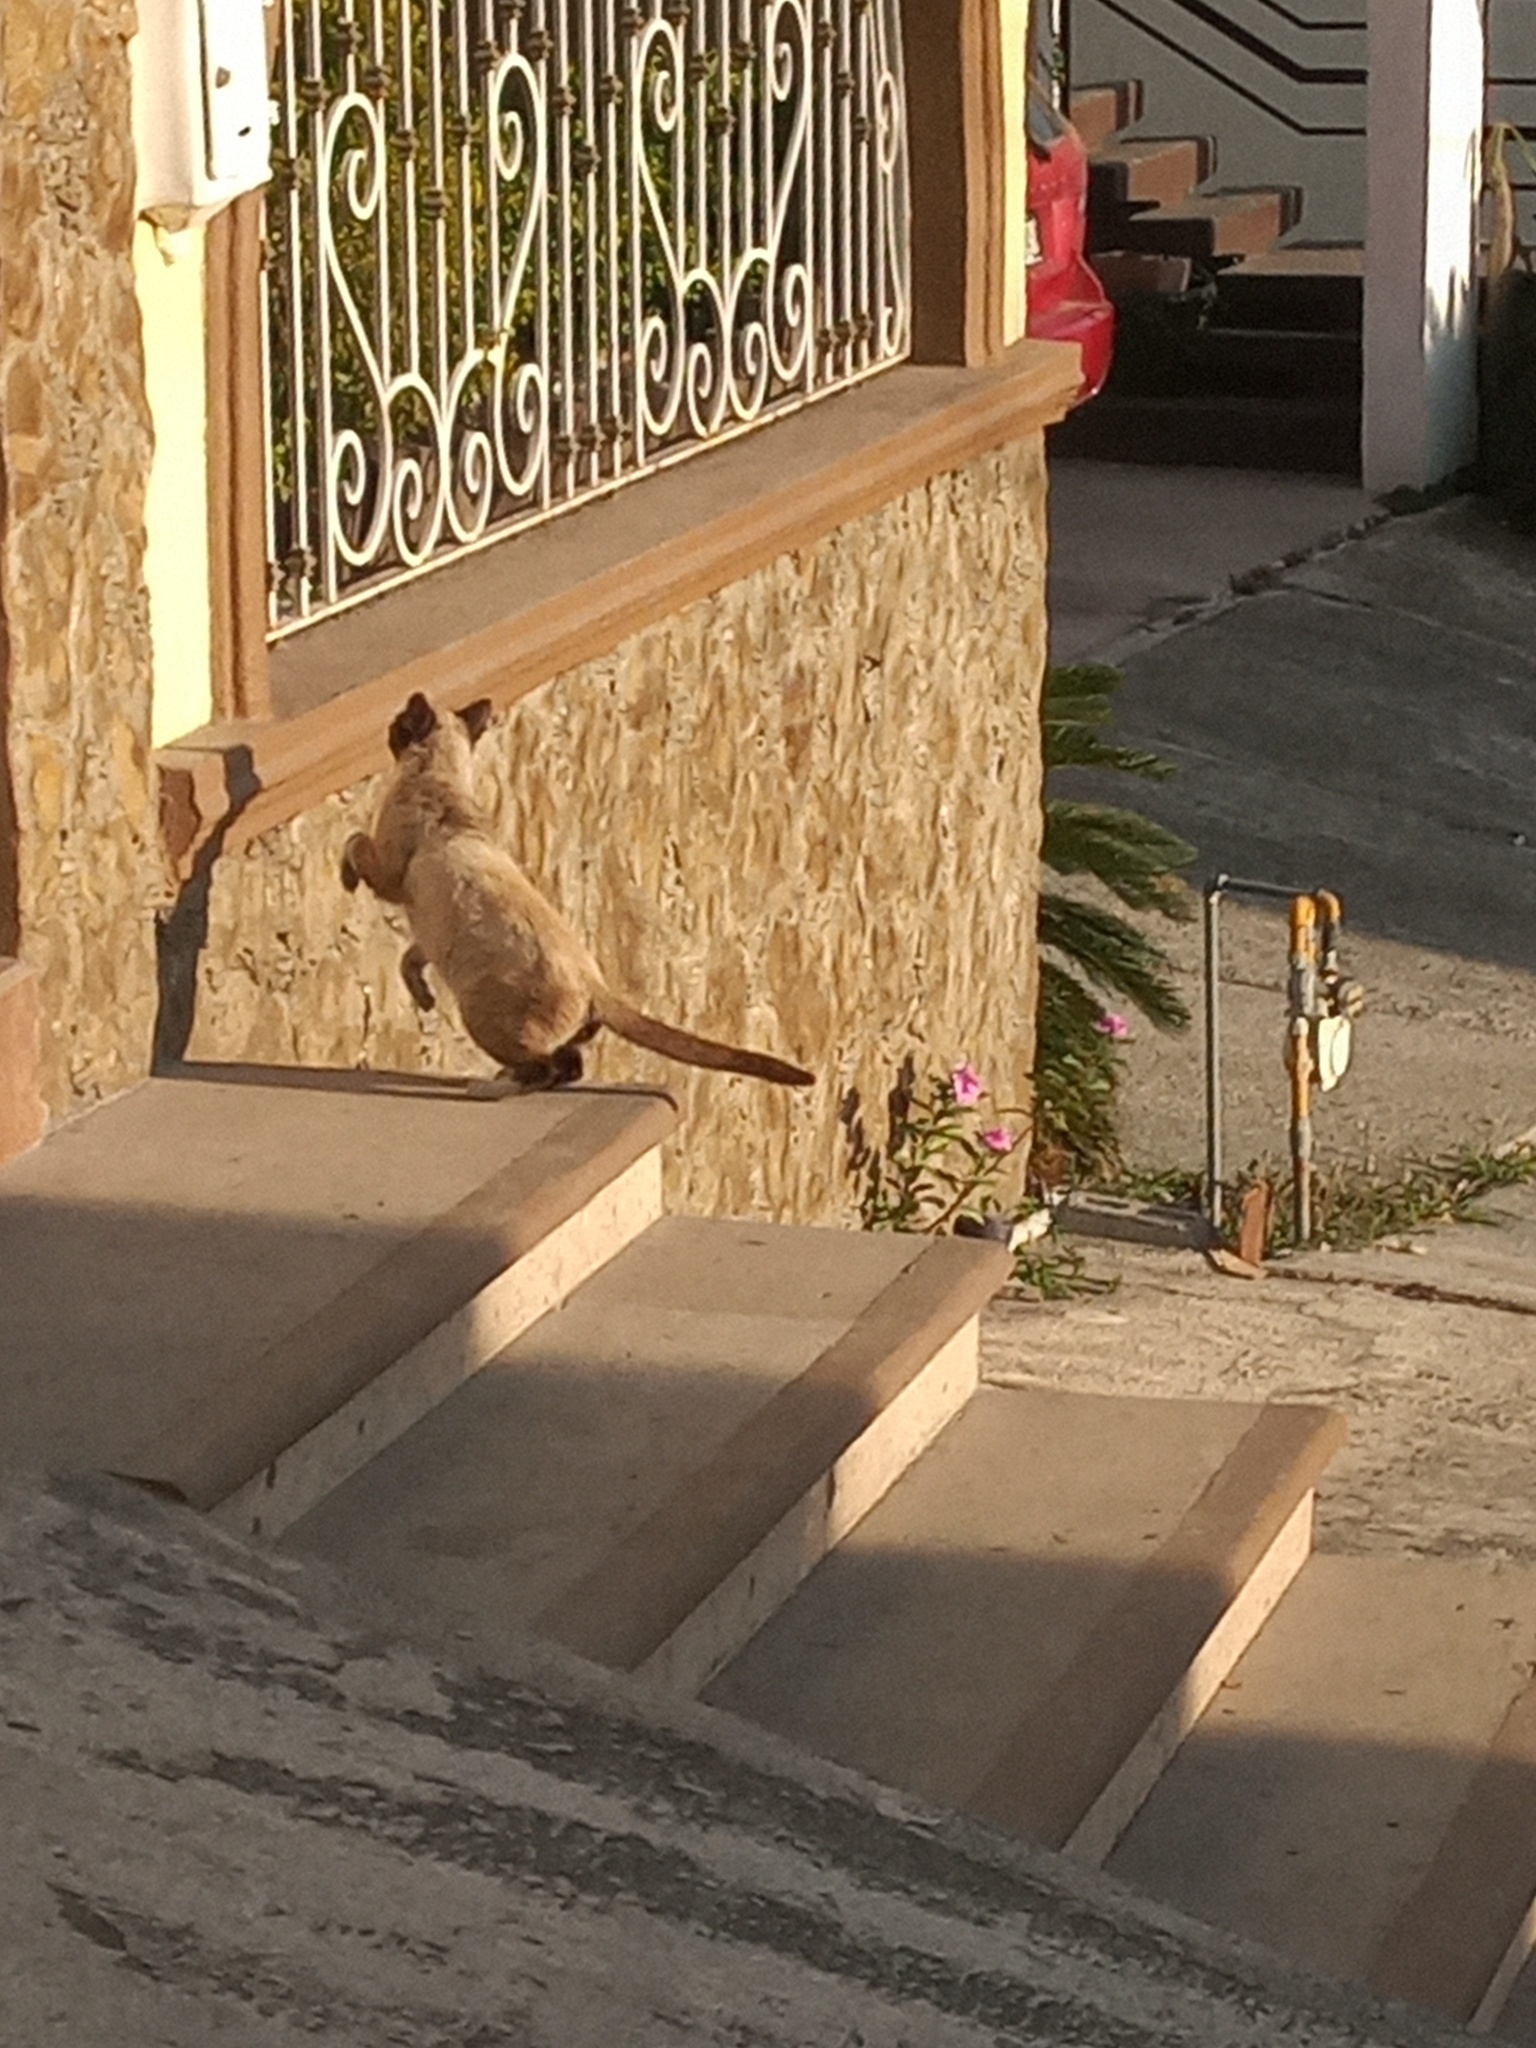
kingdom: Animalia
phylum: Chordata
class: Mammalia
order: Carnivora
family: Felidae
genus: Felis
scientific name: Felis catus
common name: Domestic cat
